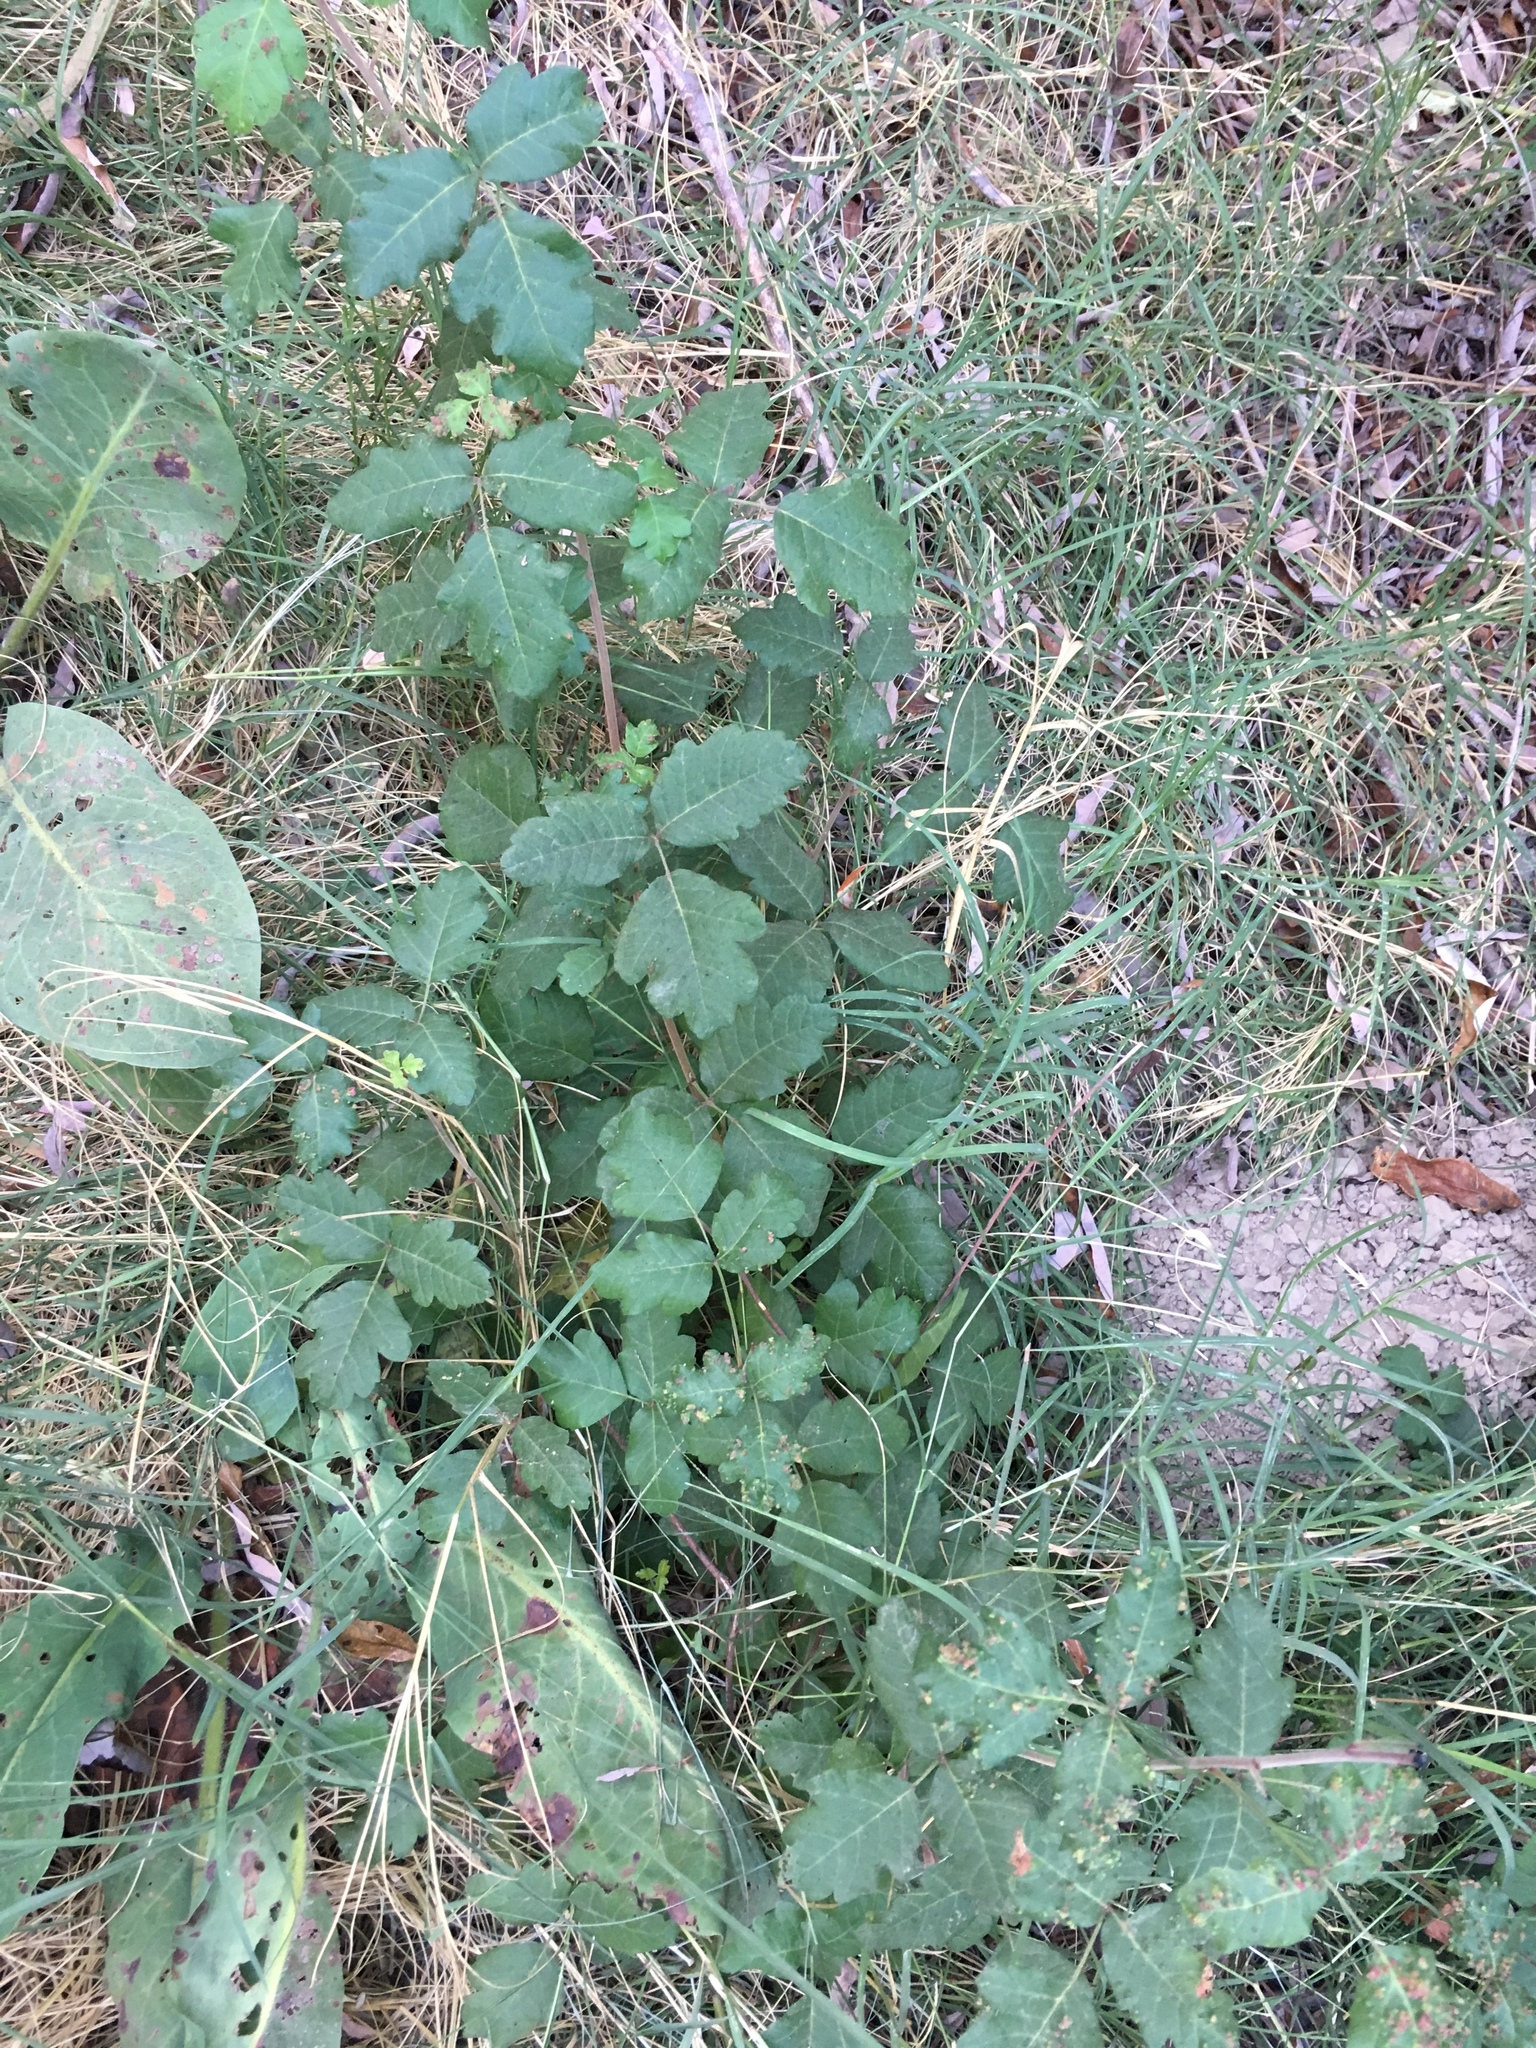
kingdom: Plantae
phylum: Tracheophyta
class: Magnoliopsida
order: Sapindales
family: Anacardiaceae
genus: Toxicodendron
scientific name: Toxicodendron diversilobum
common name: Pacific poison-oak
